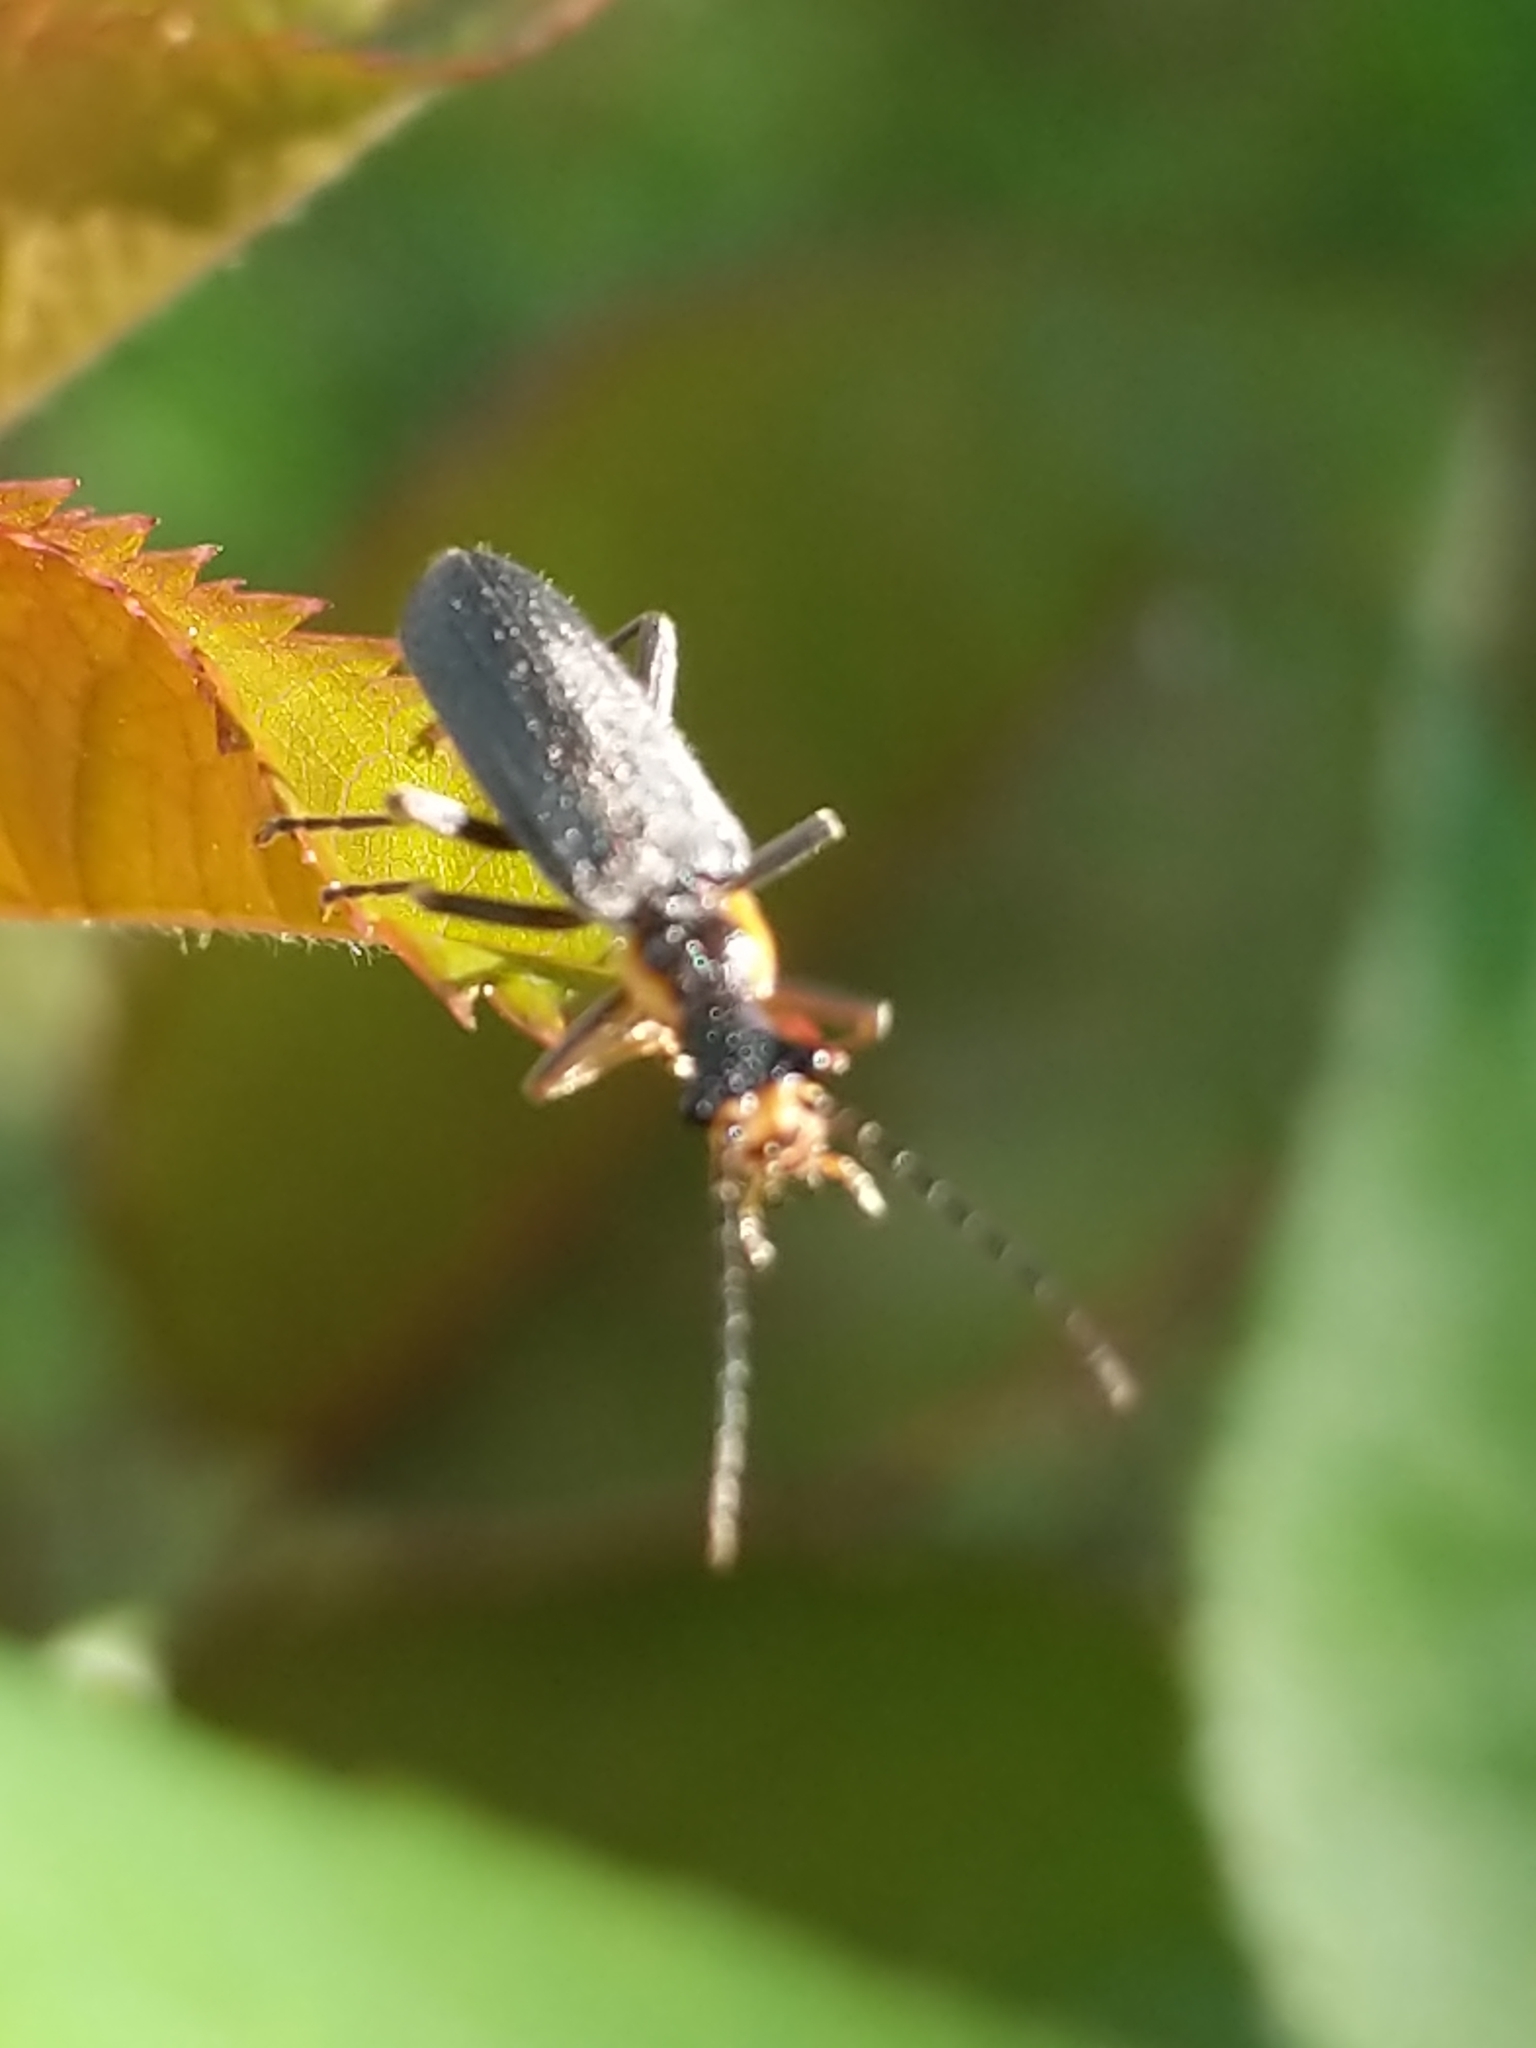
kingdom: Animalia
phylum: Arthropoda
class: Insecta
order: Coleoptera
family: Cantharidae
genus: Podabrus
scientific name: Podabrus rugosulus
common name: Wrinkled soldier beetle
